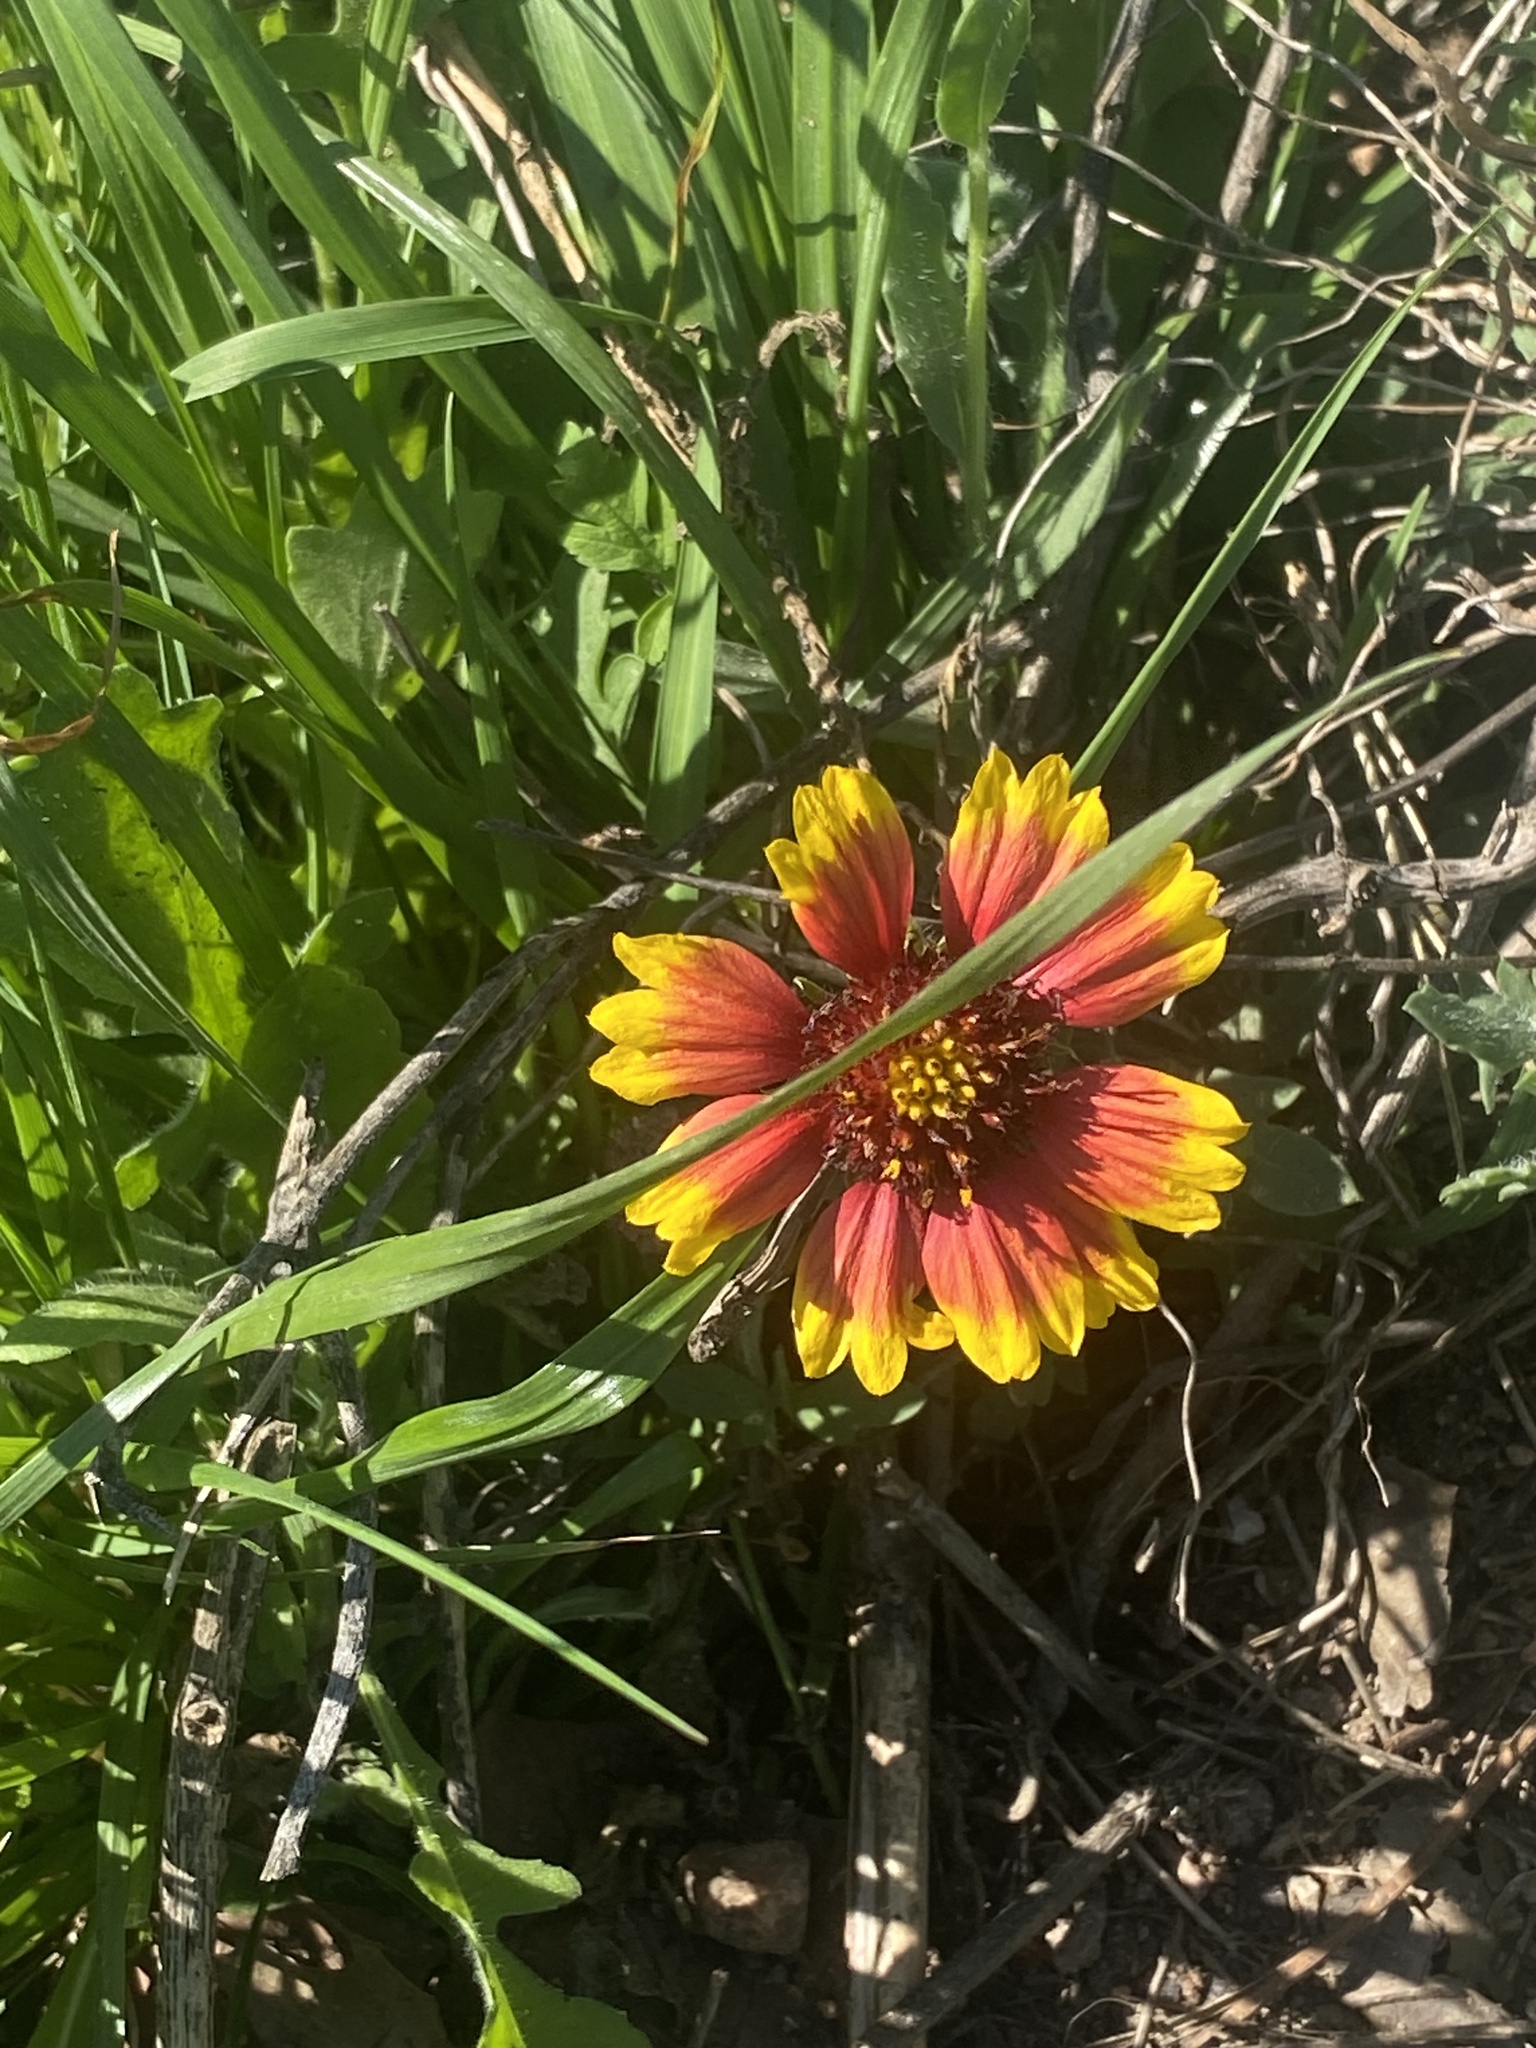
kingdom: Plantae
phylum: Tracheophyta
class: Magnoliopsida
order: Asterales
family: Asteraceae
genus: Gaillardia
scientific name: Gaillardia pulchella
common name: Firewheel
